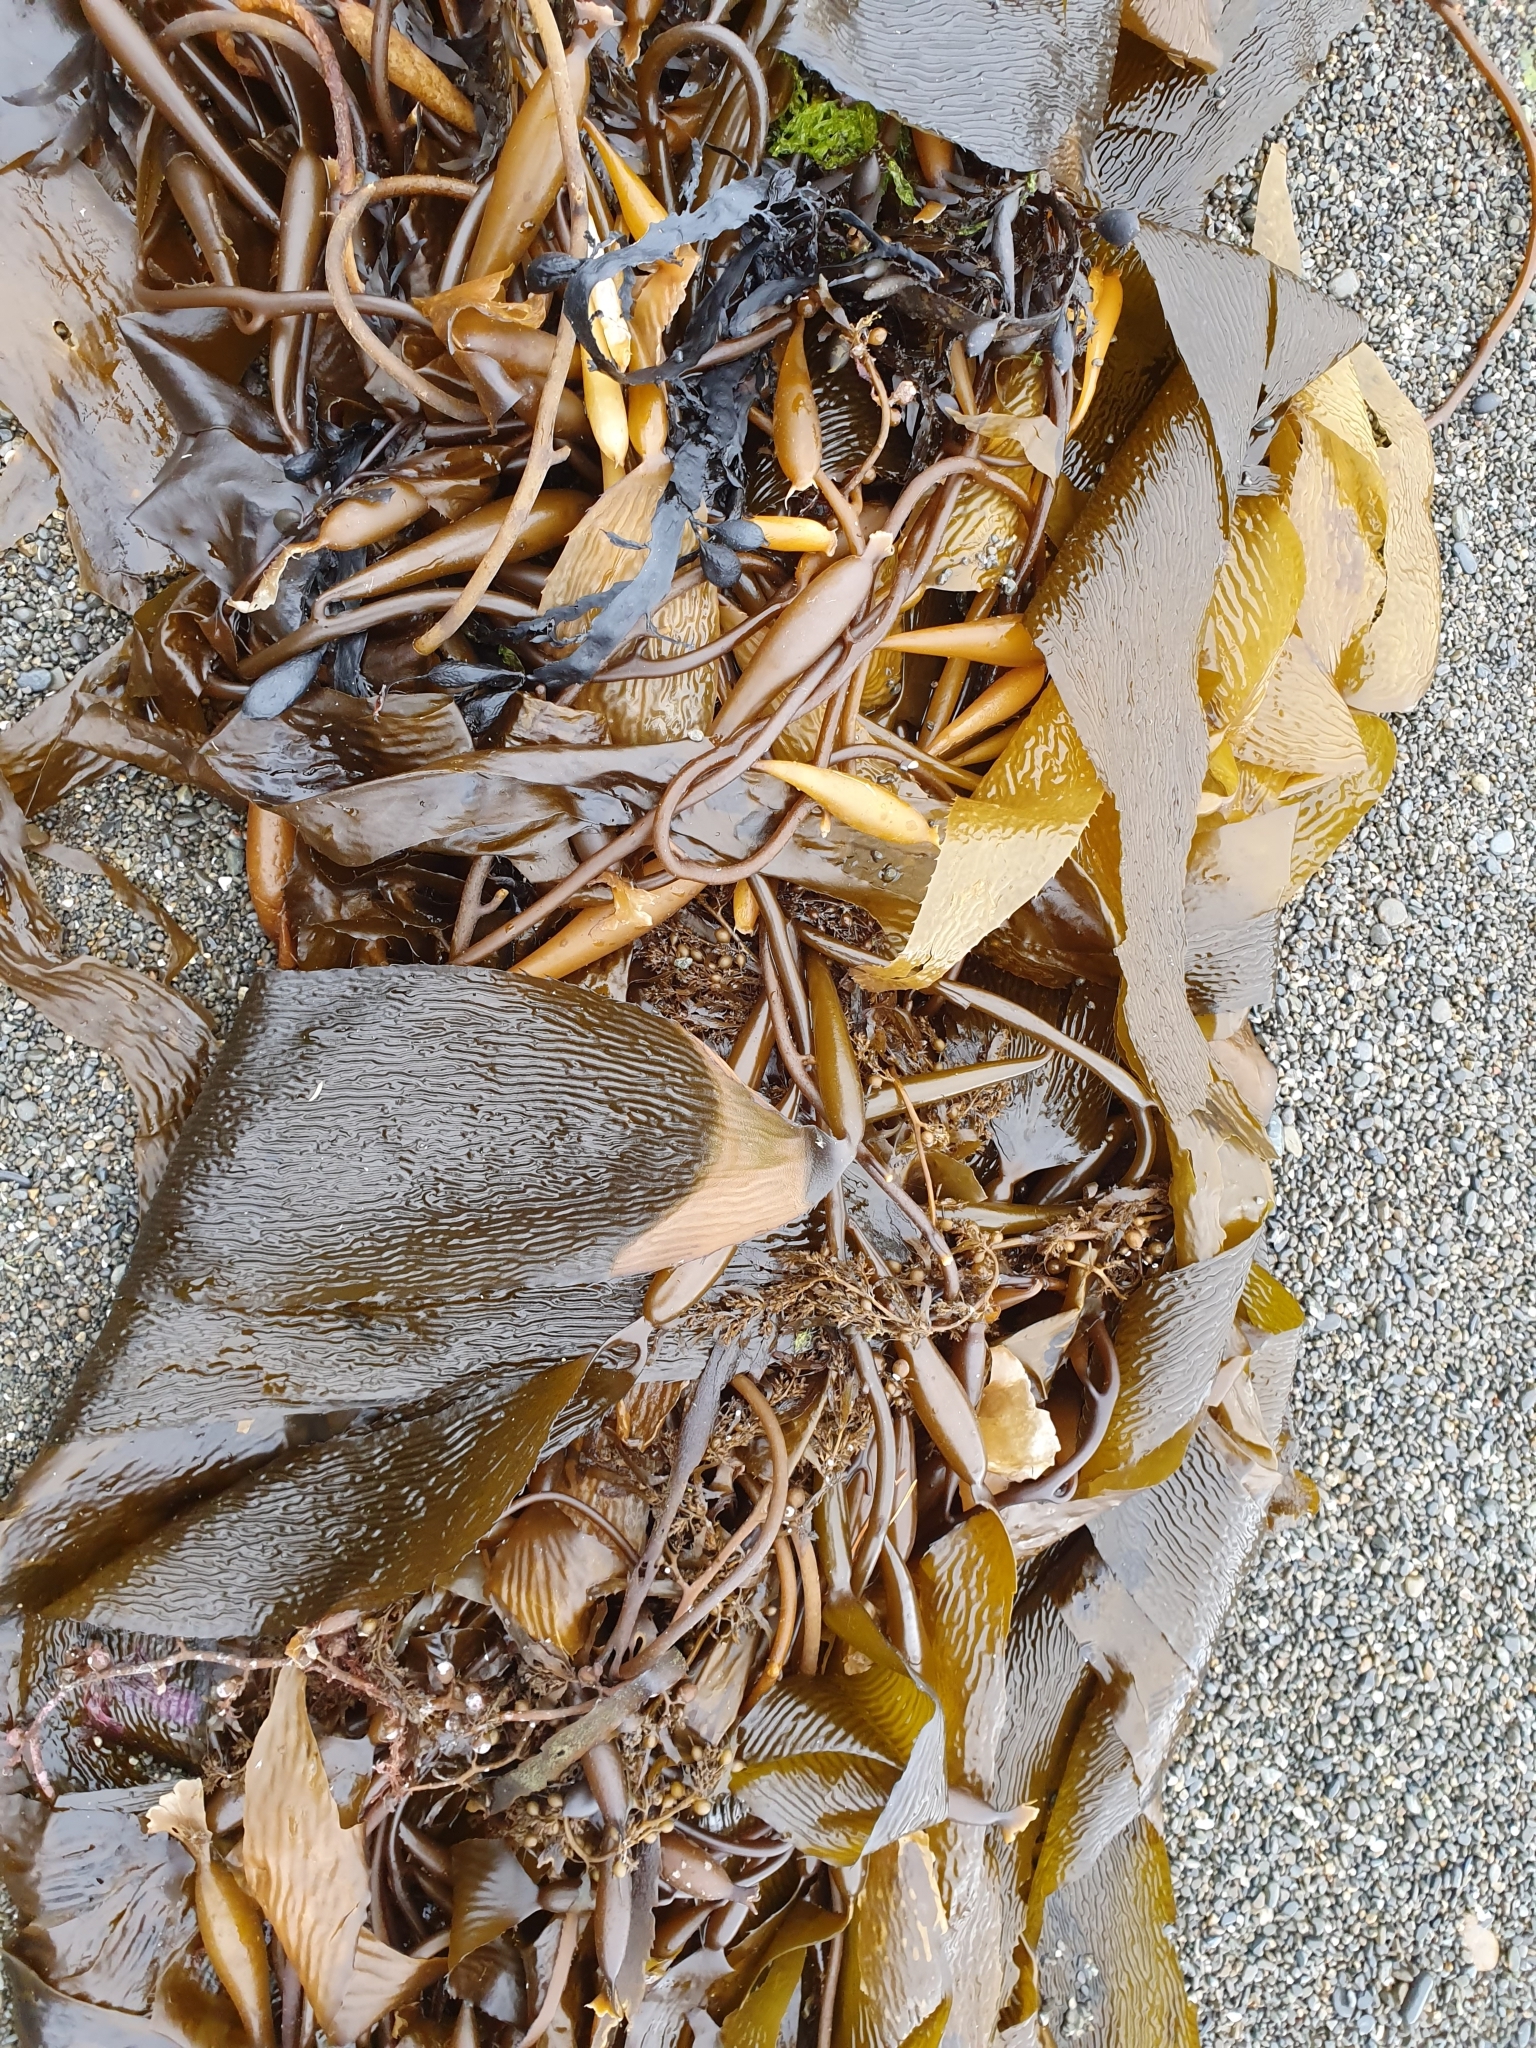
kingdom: Chromista
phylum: Ochrophyta
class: Phaeophyceae
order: Laminariales
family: Laminariaceae
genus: Macrocystis
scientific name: Macrocystis pyrifera
